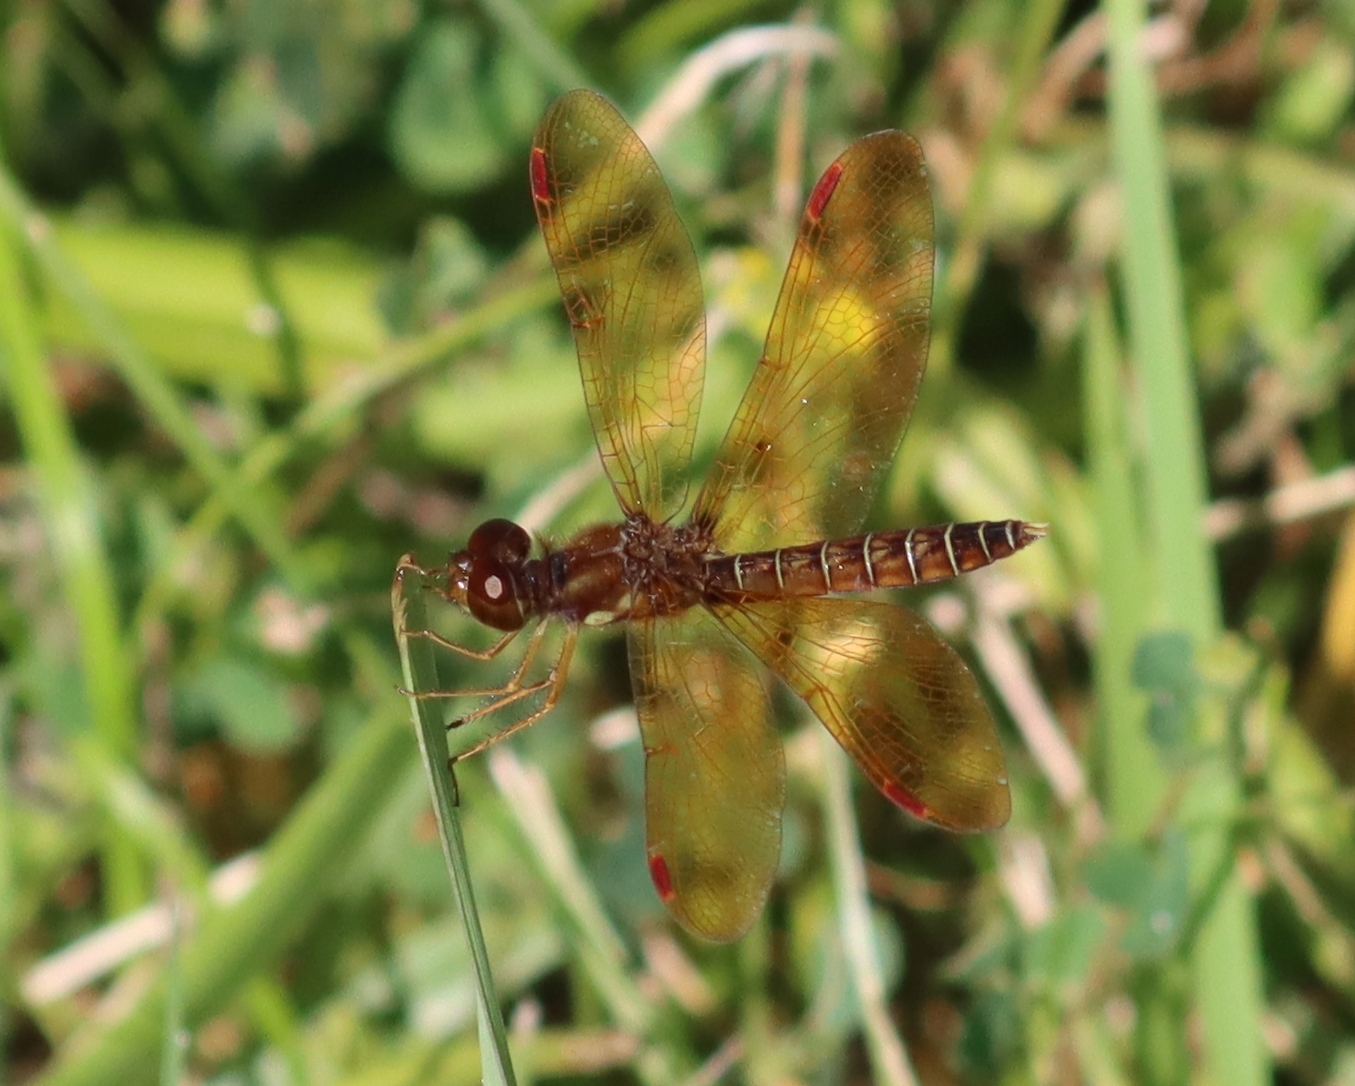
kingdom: Animalia
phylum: Arthropoda
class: Insecta
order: Odonata
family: Libellulidae
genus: Perithemis
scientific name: Perithemis tenera
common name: Eastern amberwing
